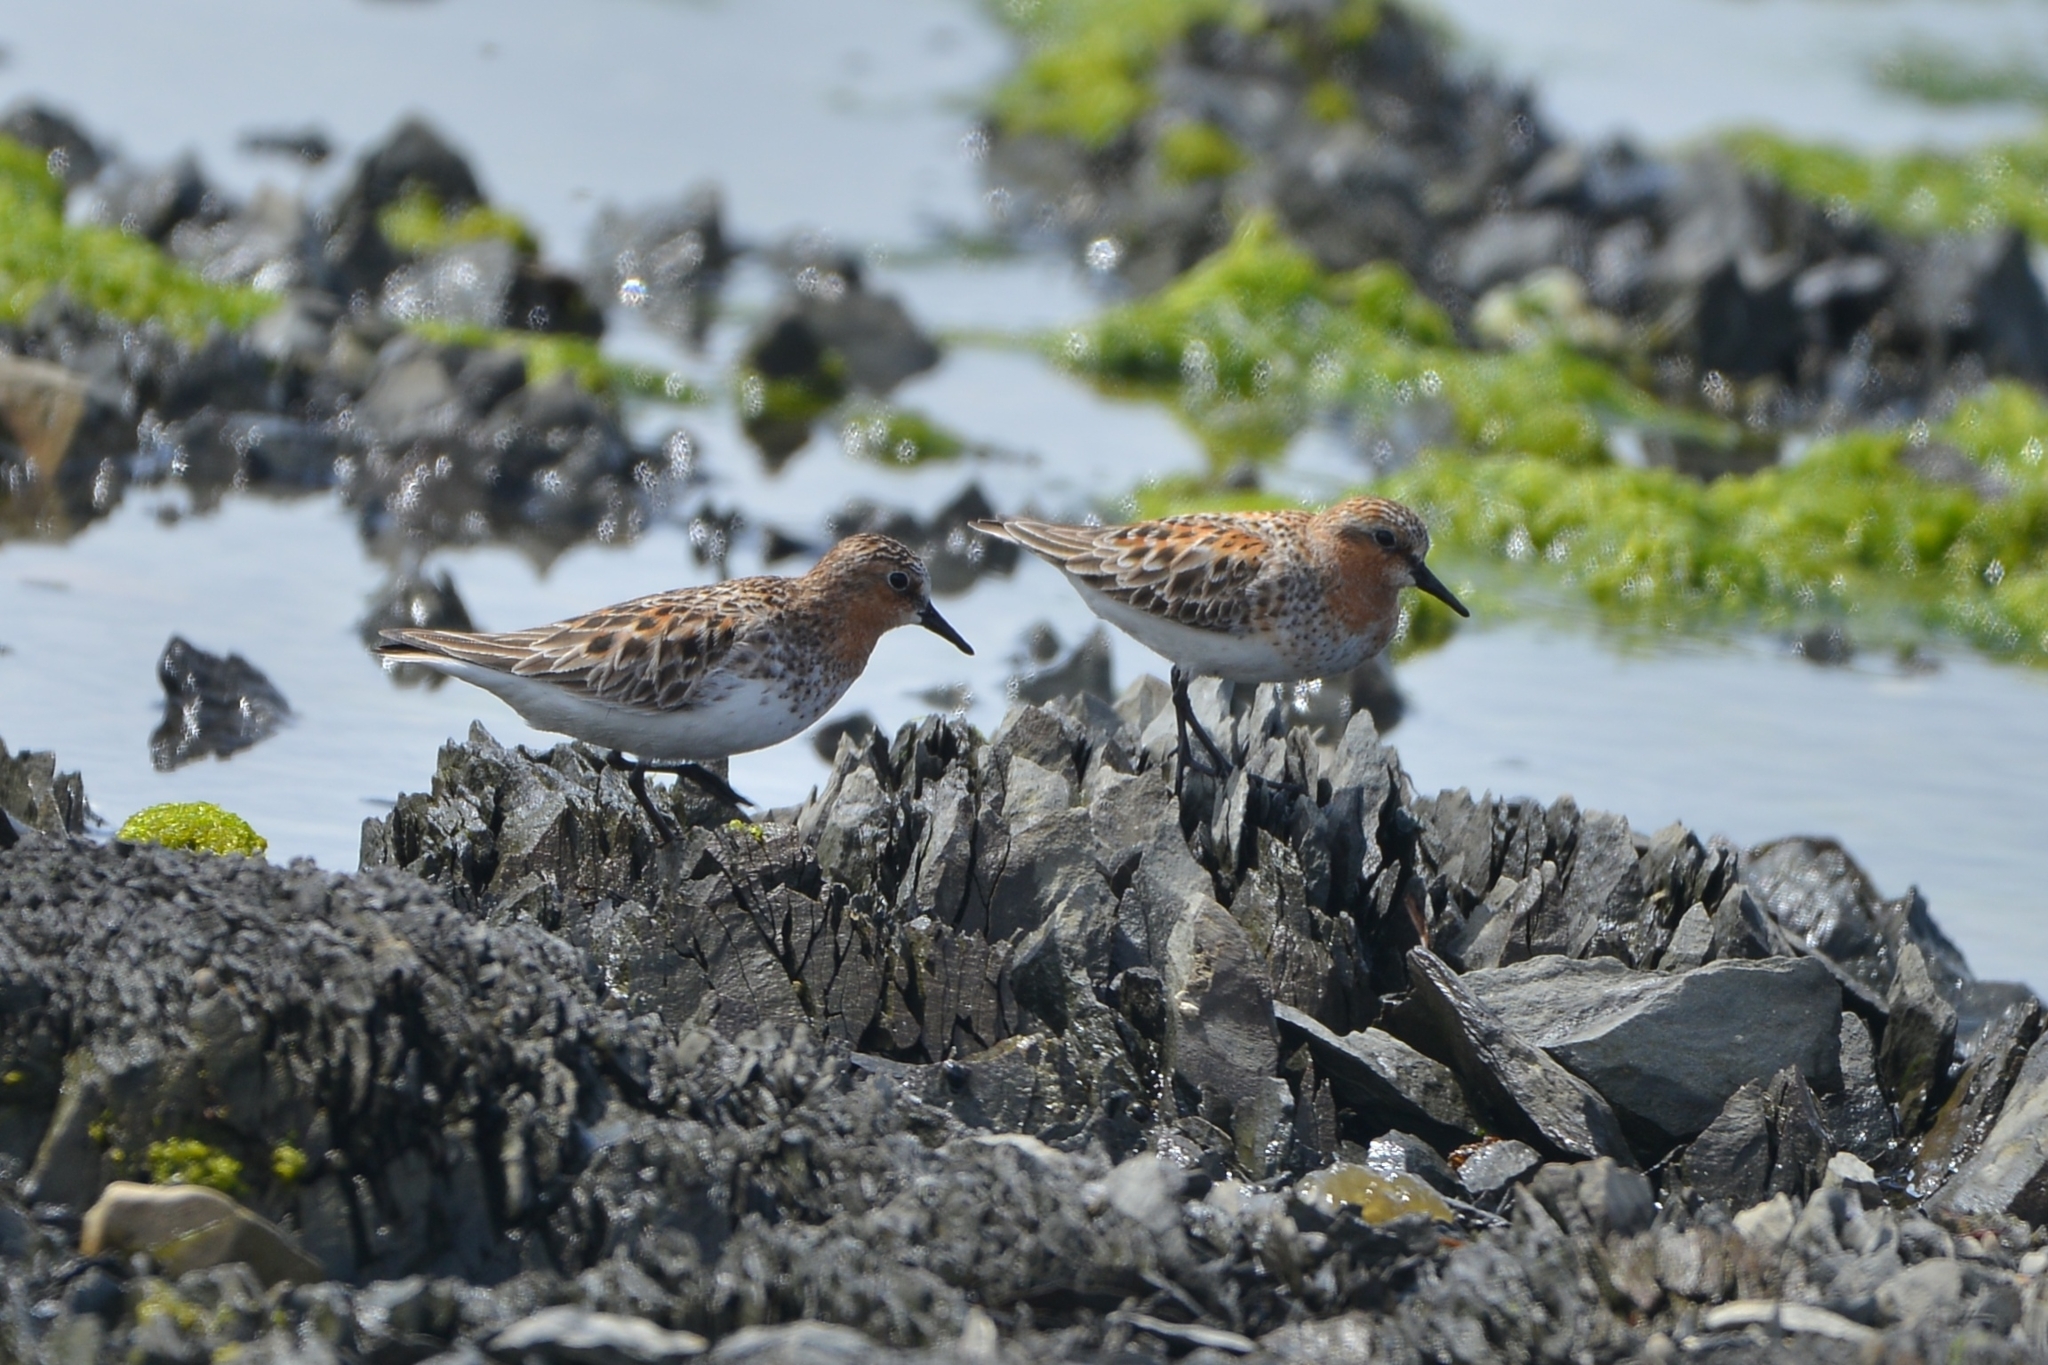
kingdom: Animalia
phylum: Chordata
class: Aves
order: Charadriiformes
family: Scolopacidae
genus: Calidris
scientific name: Calidris ruficollis
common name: Red-necked stint
